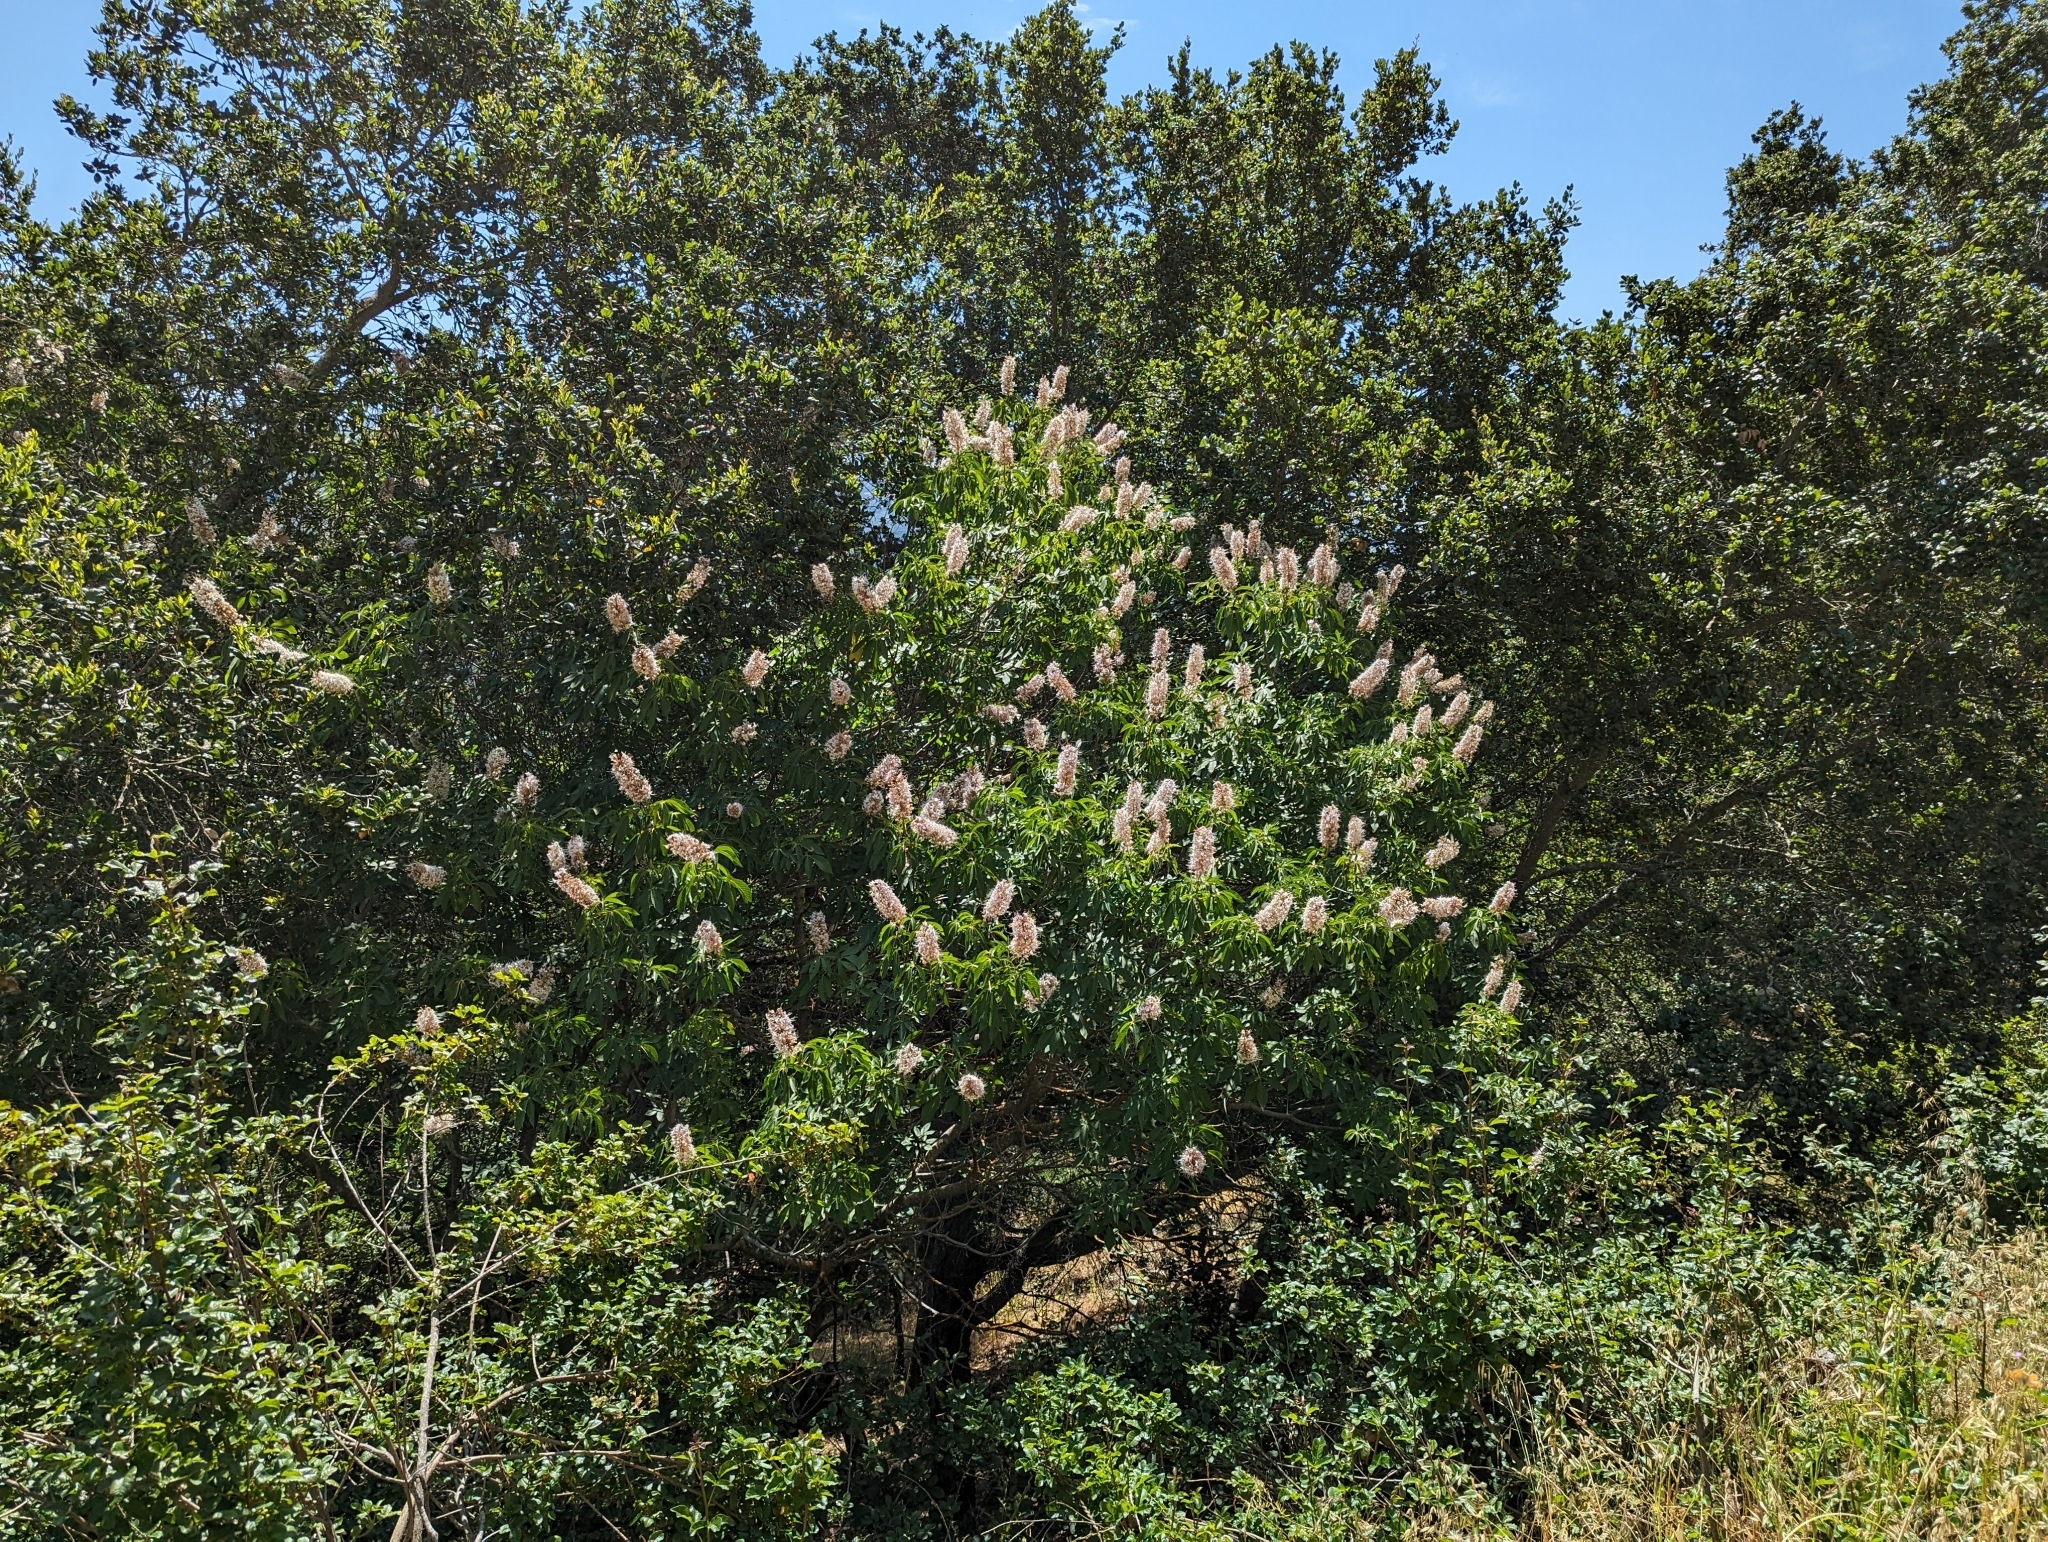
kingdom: Plantae
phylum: Tracheophyta
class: Magnoliopsida
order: Sapindales
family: Sapindaceae
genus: Aesculus
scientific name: Aesculus californica
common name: California buckeye
